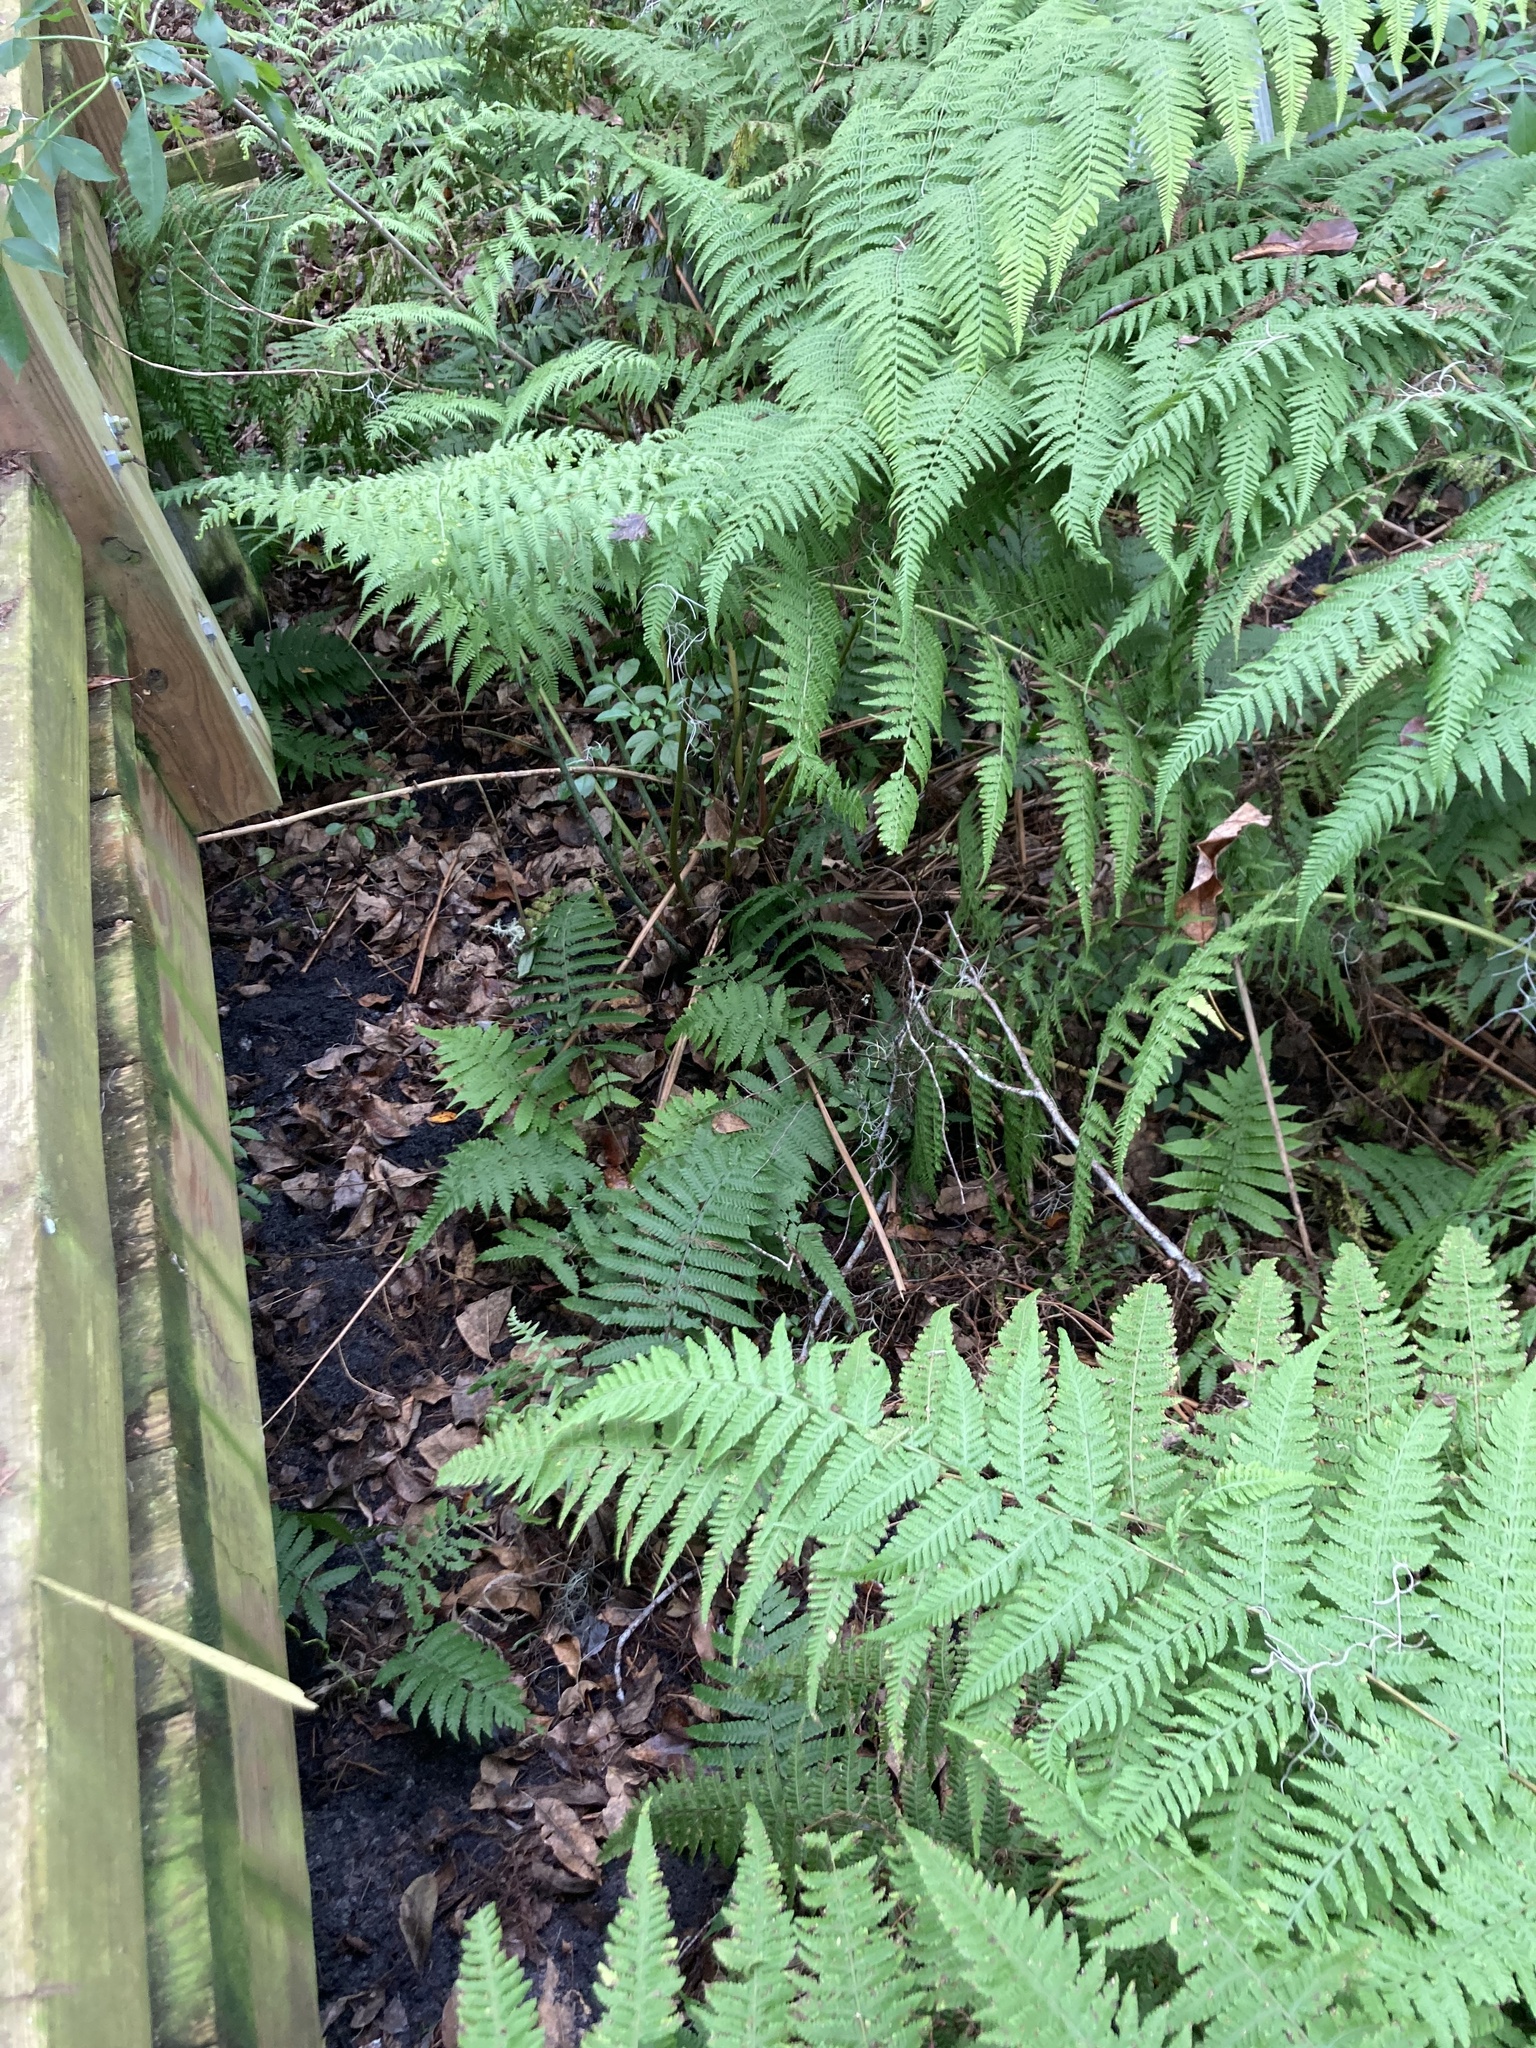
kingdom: Plantae
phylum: Tracheophyta
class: Polypodiopsida
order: Polypodiales
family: Thelypteridaceae
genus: Macrothelypteris
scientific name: Macrothelypteris torresiana
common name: Swordfern
